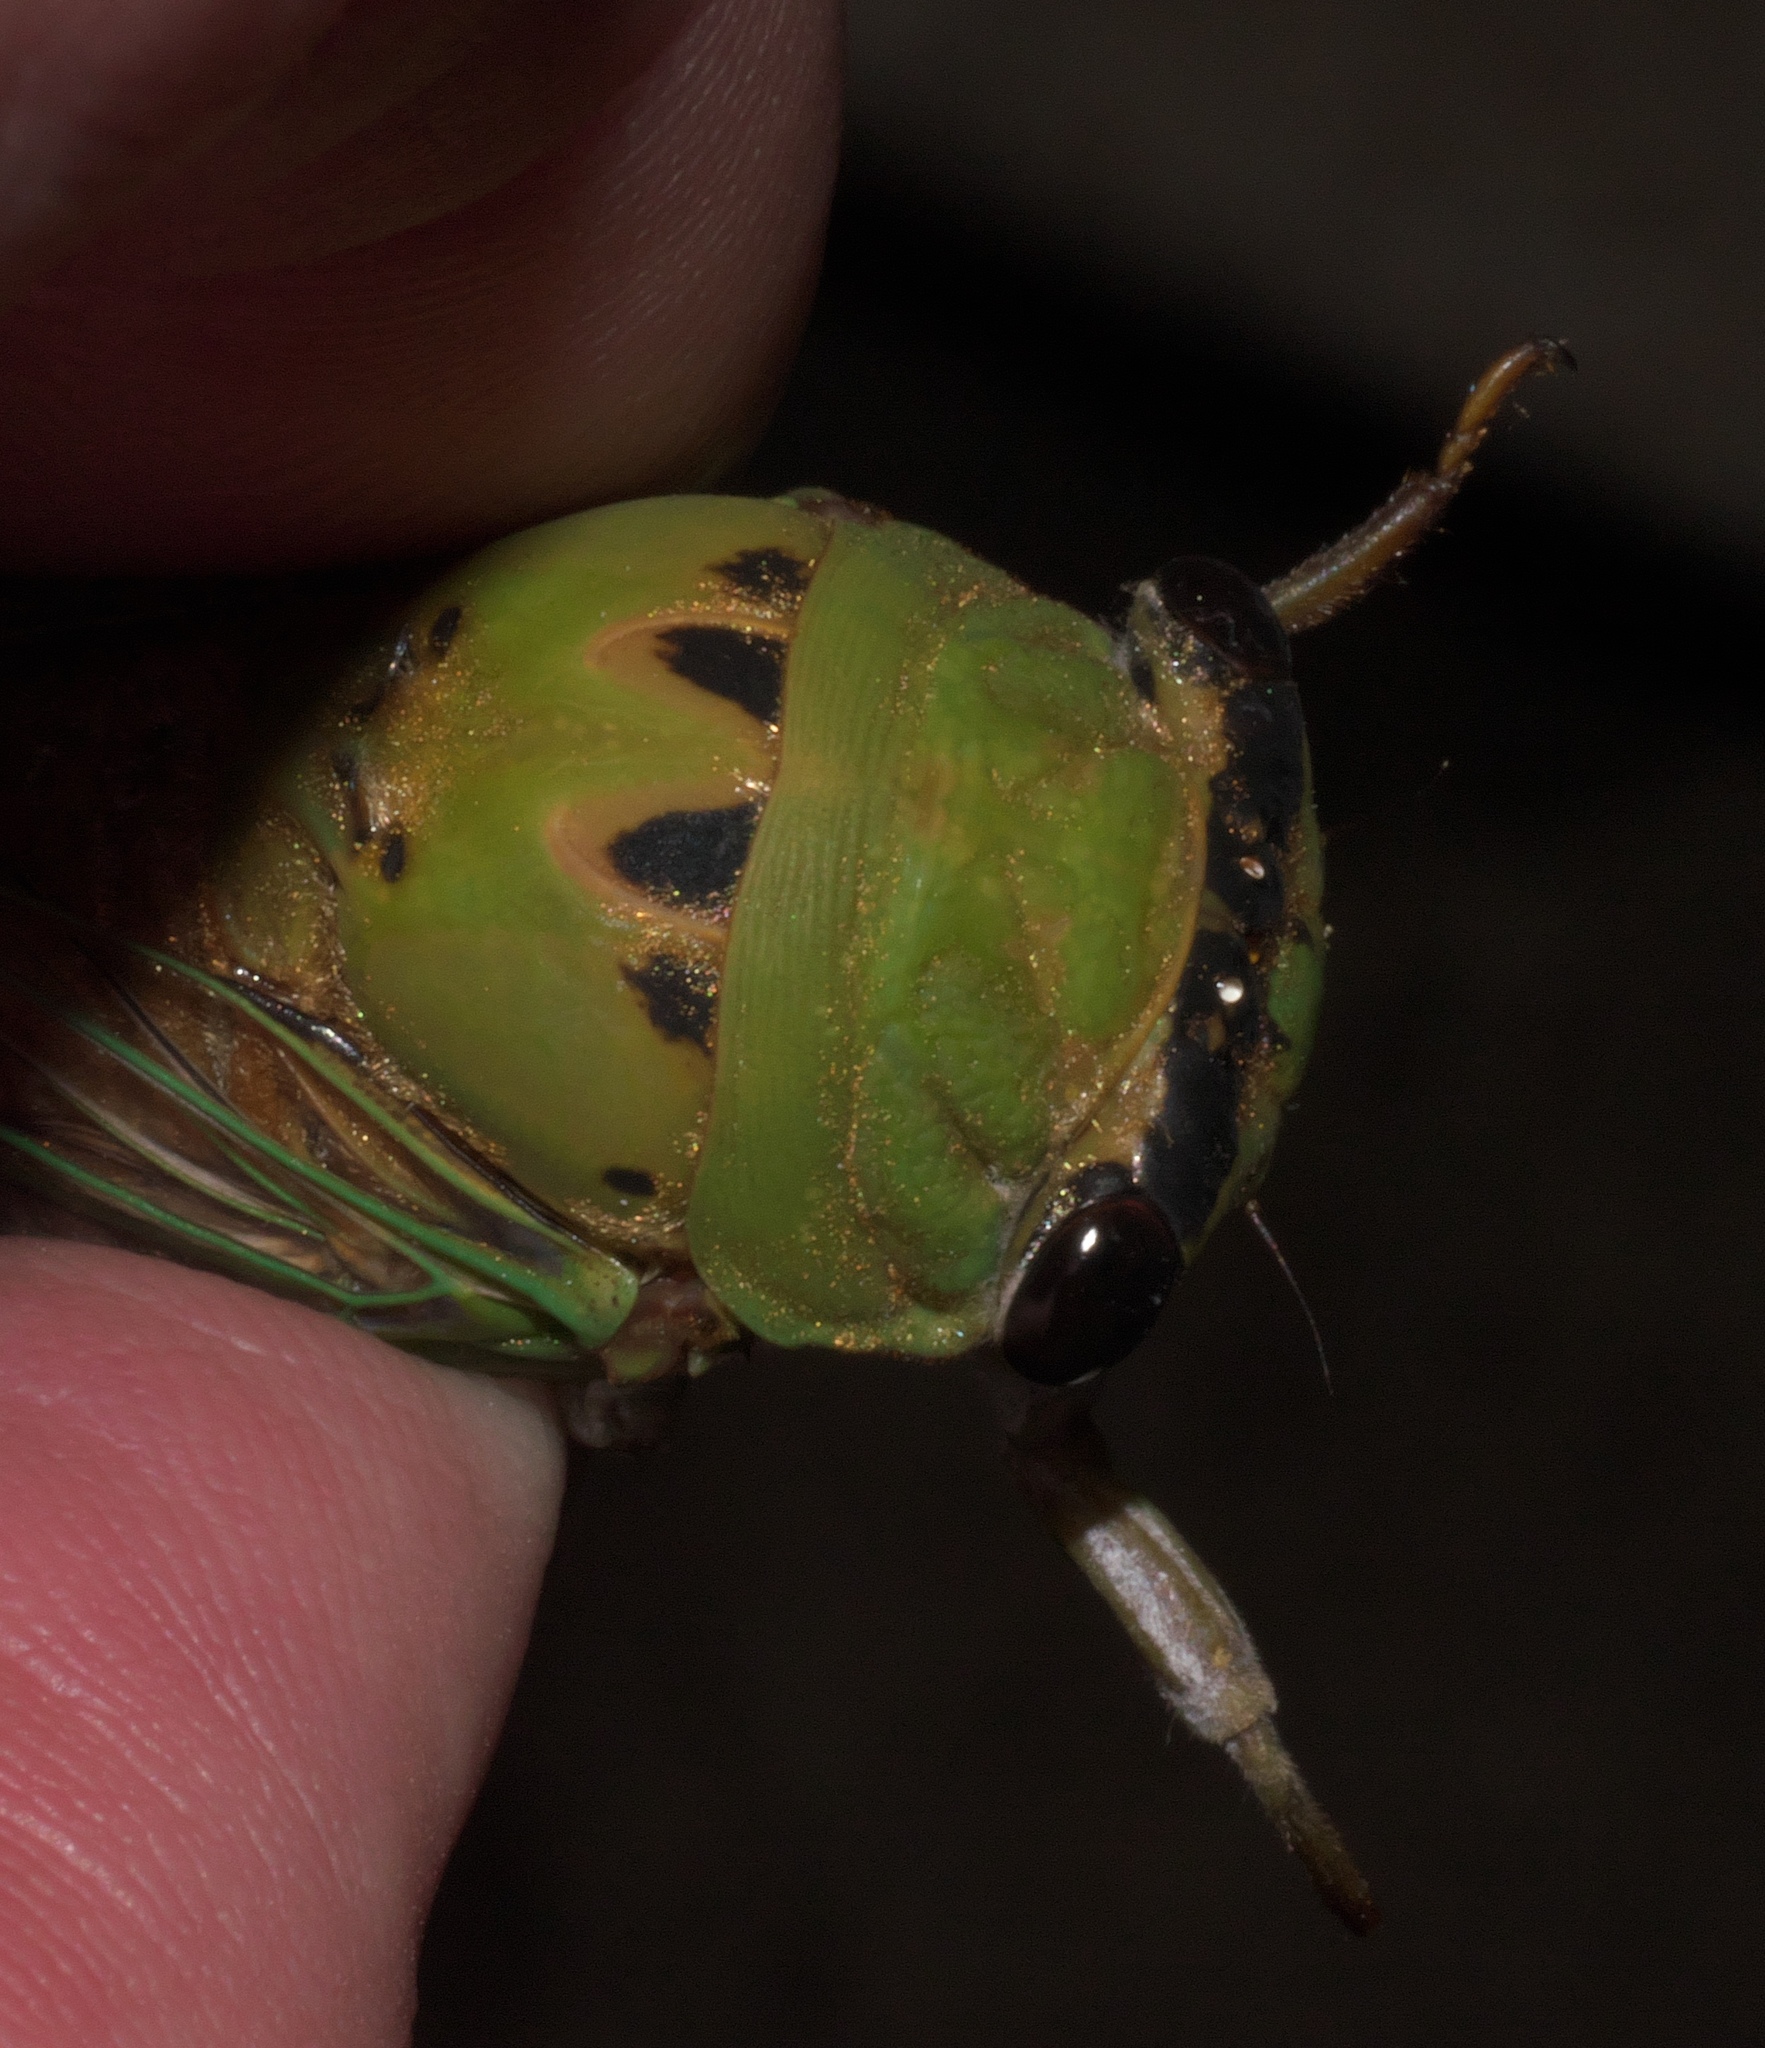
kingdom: Animalia
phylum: Arthropoda
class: Insecta
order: Hemiptera
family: Cicadidae
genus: Neotibicen
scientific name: Neotibicen superbus
